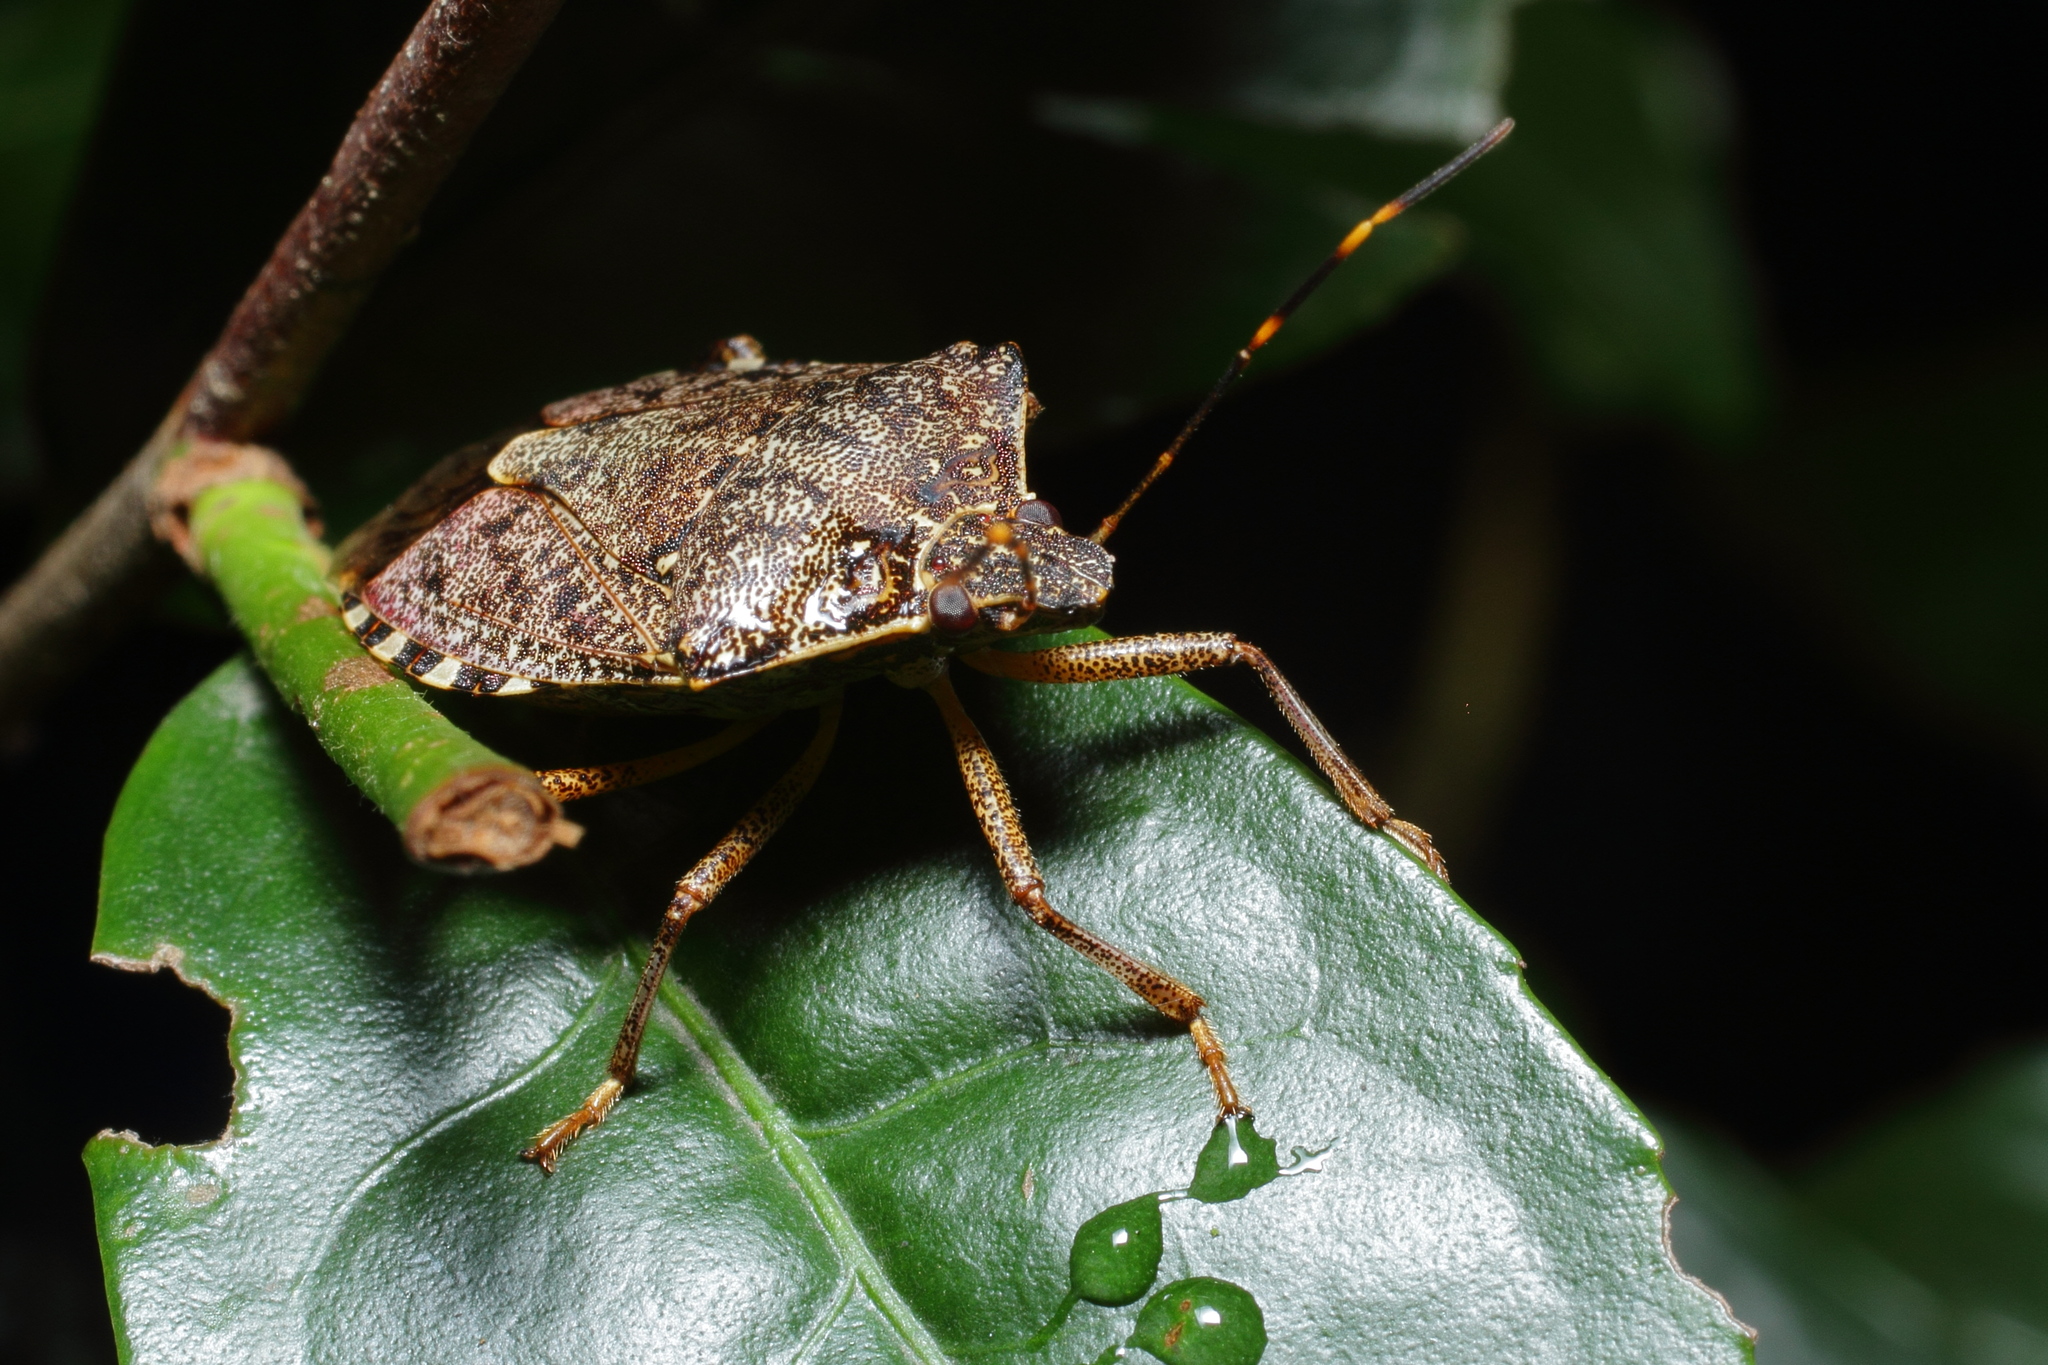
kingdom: Animalia
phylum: Arthropoda
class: Insecta
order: Hemiptera
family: Pentatomidae
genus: Halyomorpha
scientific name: Halyomorpha halys
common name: Brown marmorated stink bug
